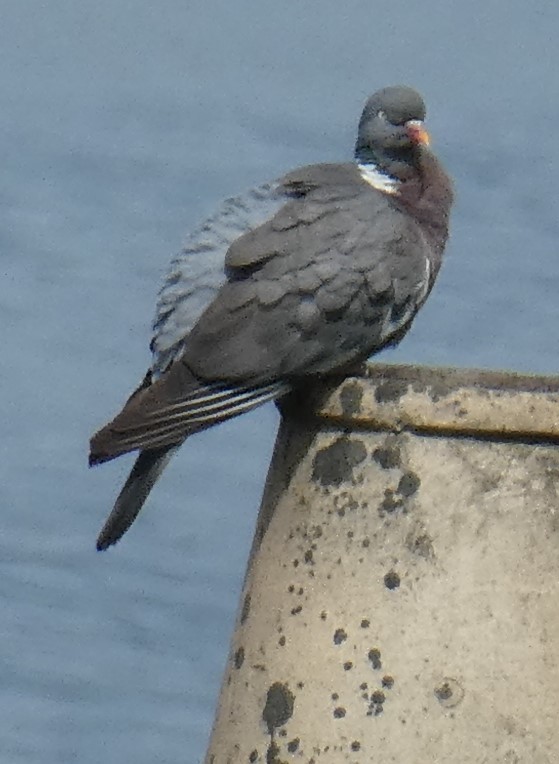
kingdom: Animalia
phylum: Chordata
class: Aves
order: Columbiformes
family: Columbidae
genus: Columba
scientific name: Columba palumbus
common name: Common wood pigeon
